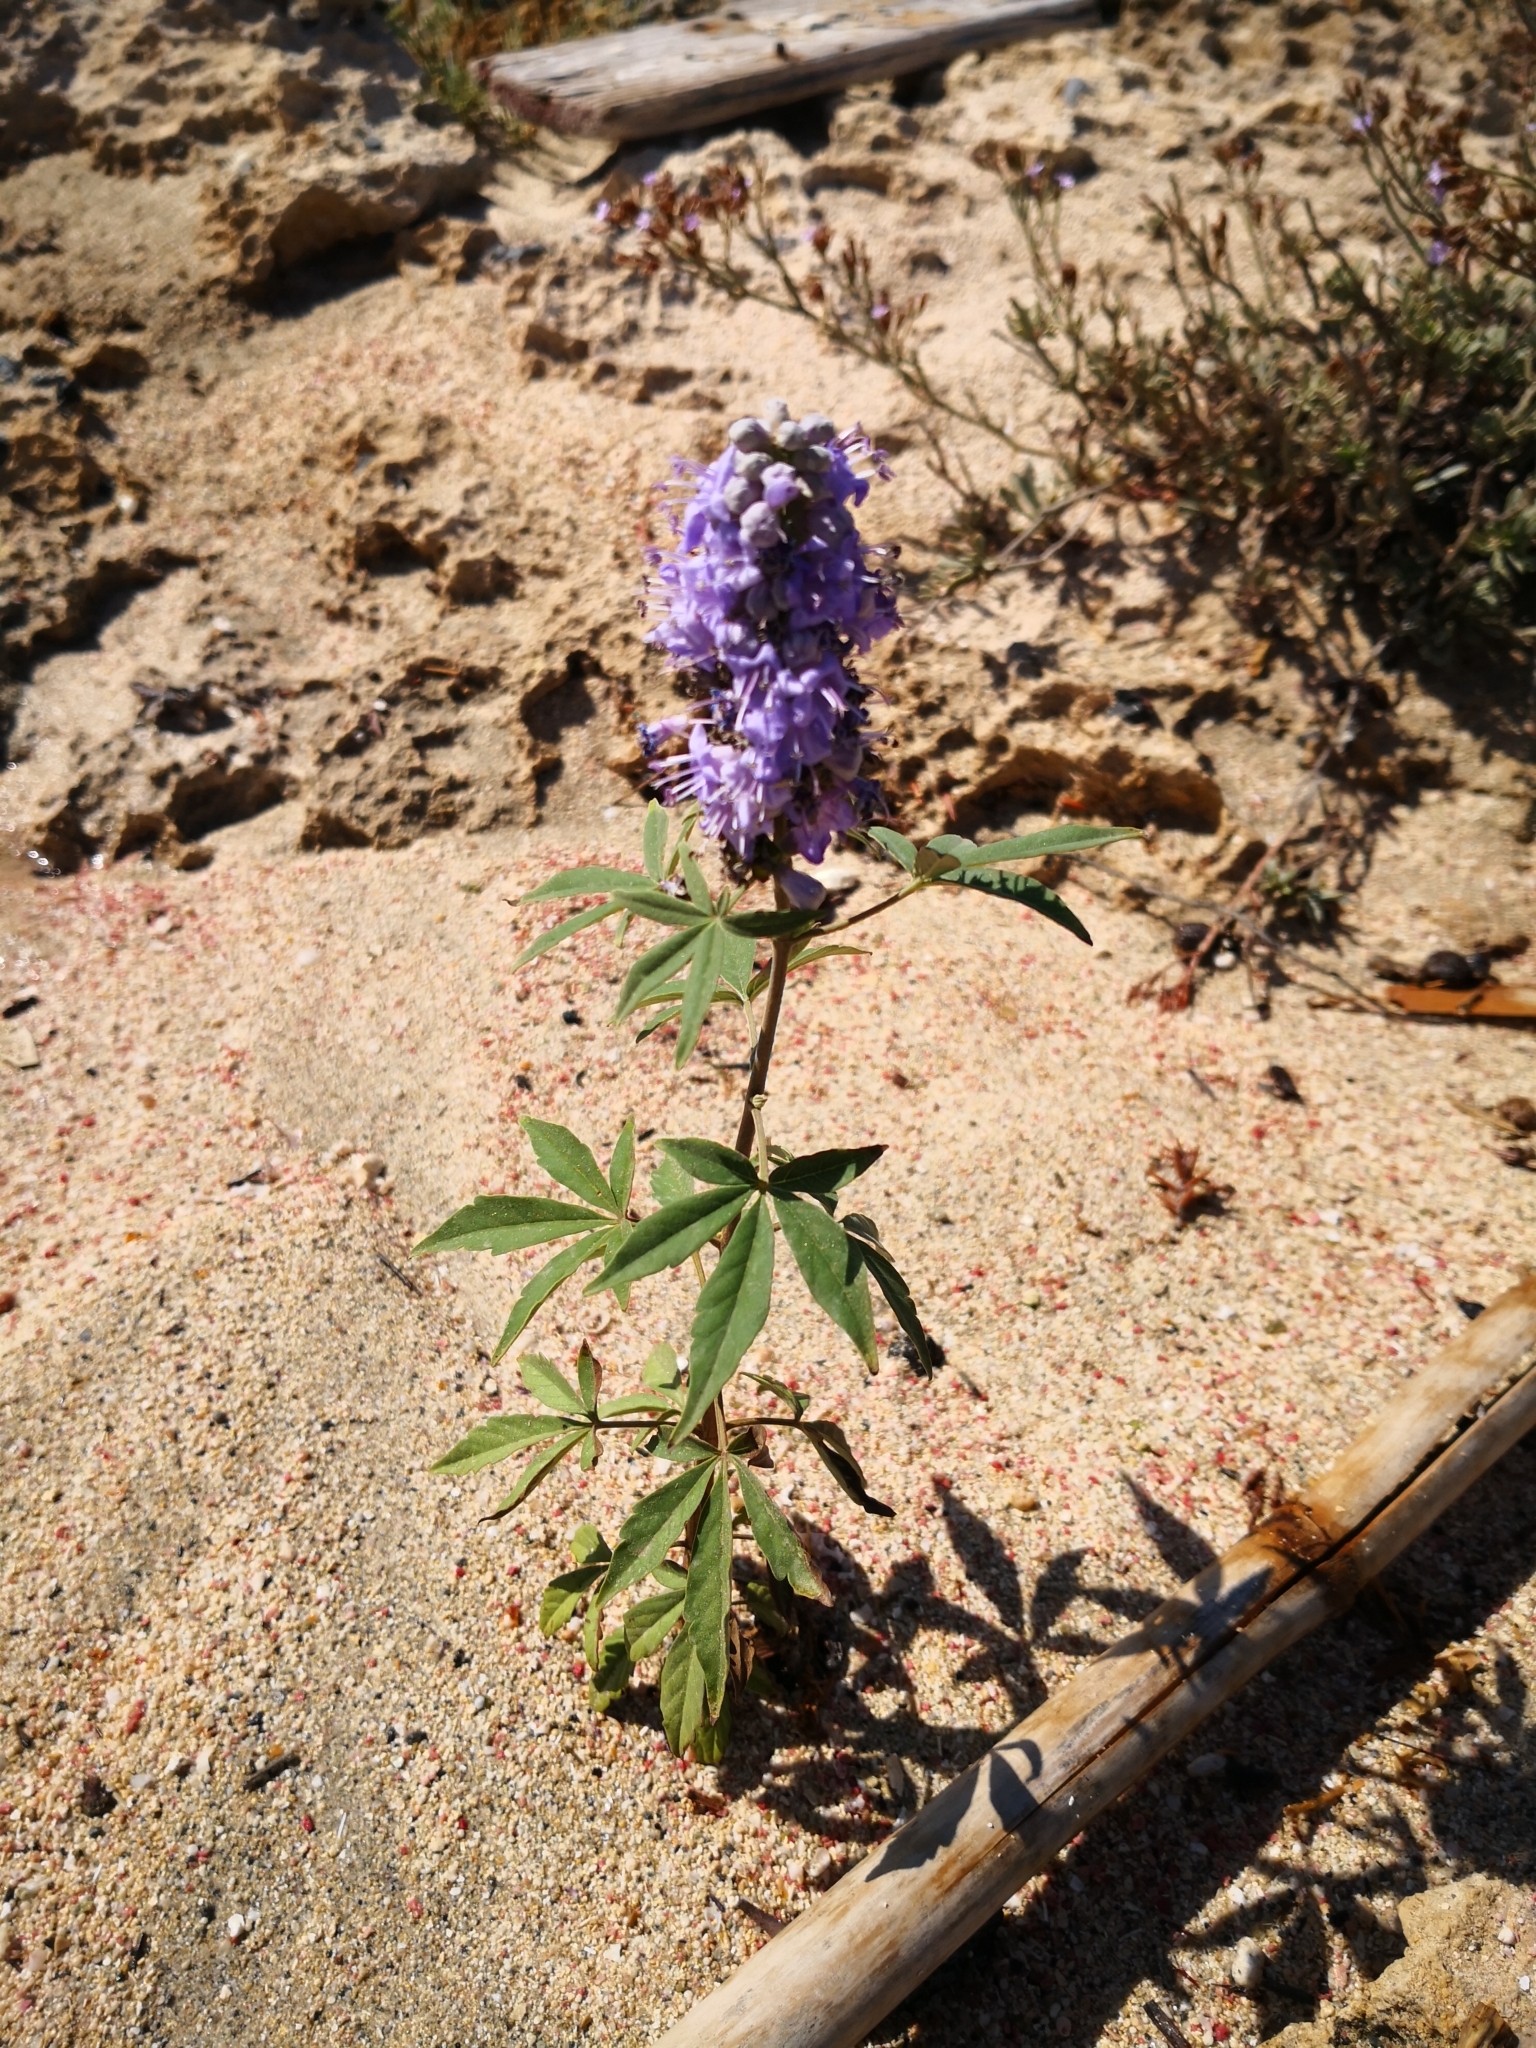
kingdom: Plantae
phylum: Tracheophyta
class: Magnoliopsida
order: Lamiales
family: Lamiaceae
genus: Vitex
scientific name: Vitex agnus-castus
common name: Chasteberry
